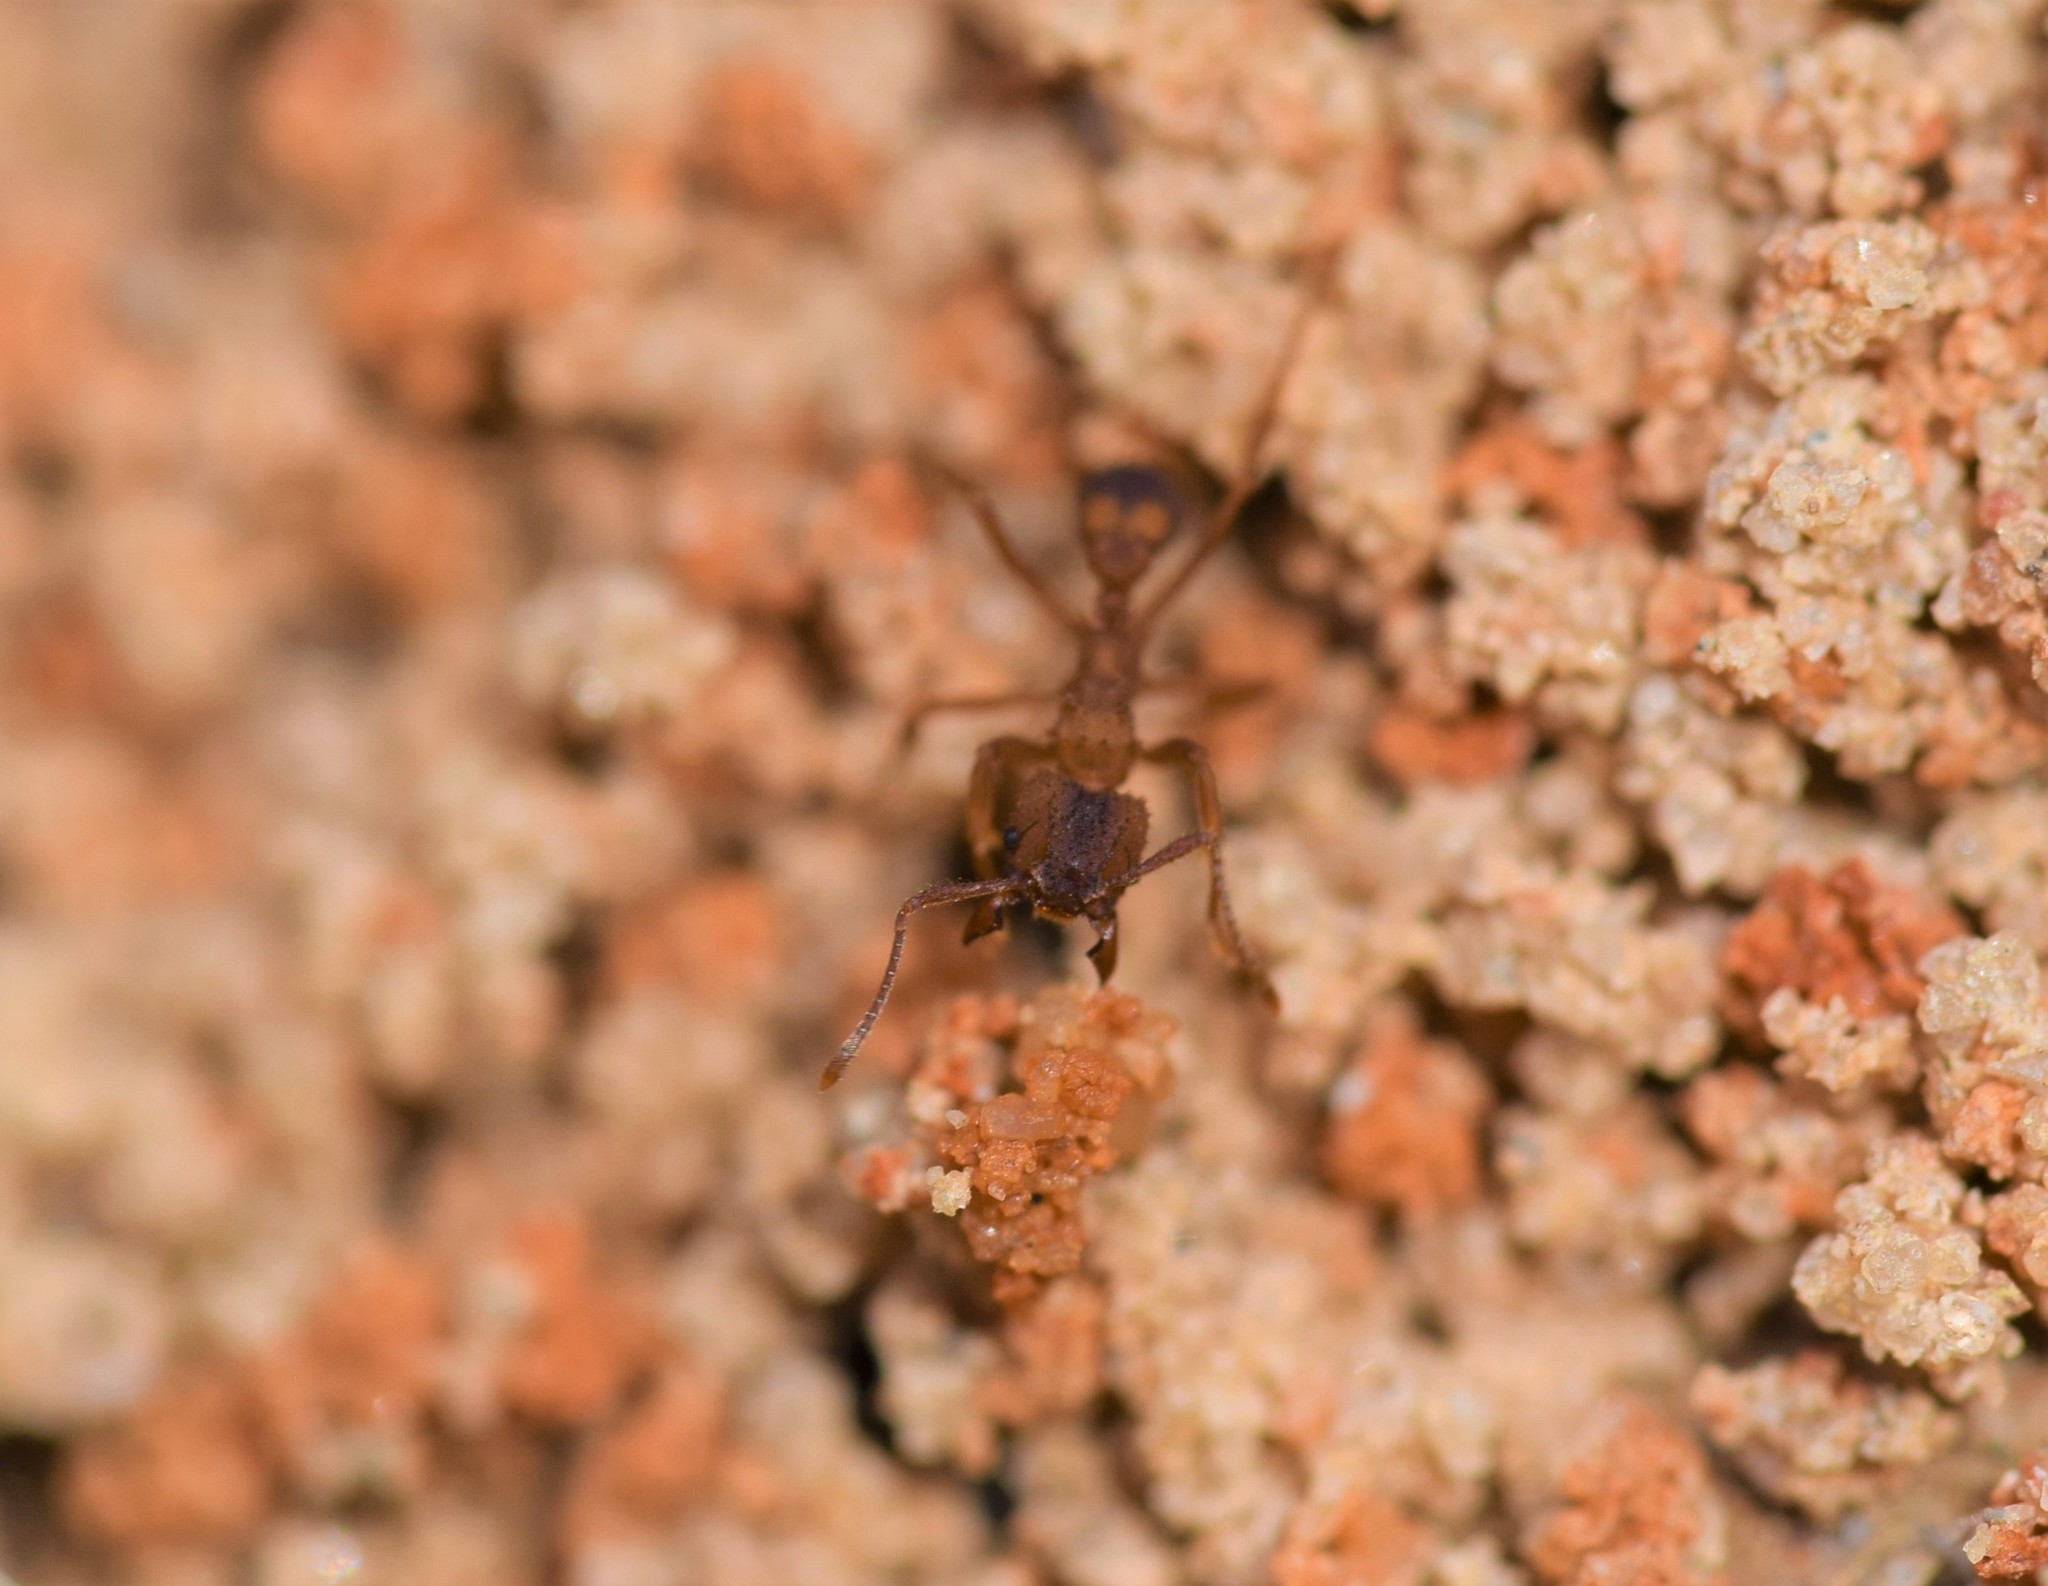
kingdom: Animalia
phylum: Arthropoda
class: Insecta
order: Hymenoptera
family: Formicidae
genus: Trachymyrmex
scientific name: Trachymyrmex septentrionalis
